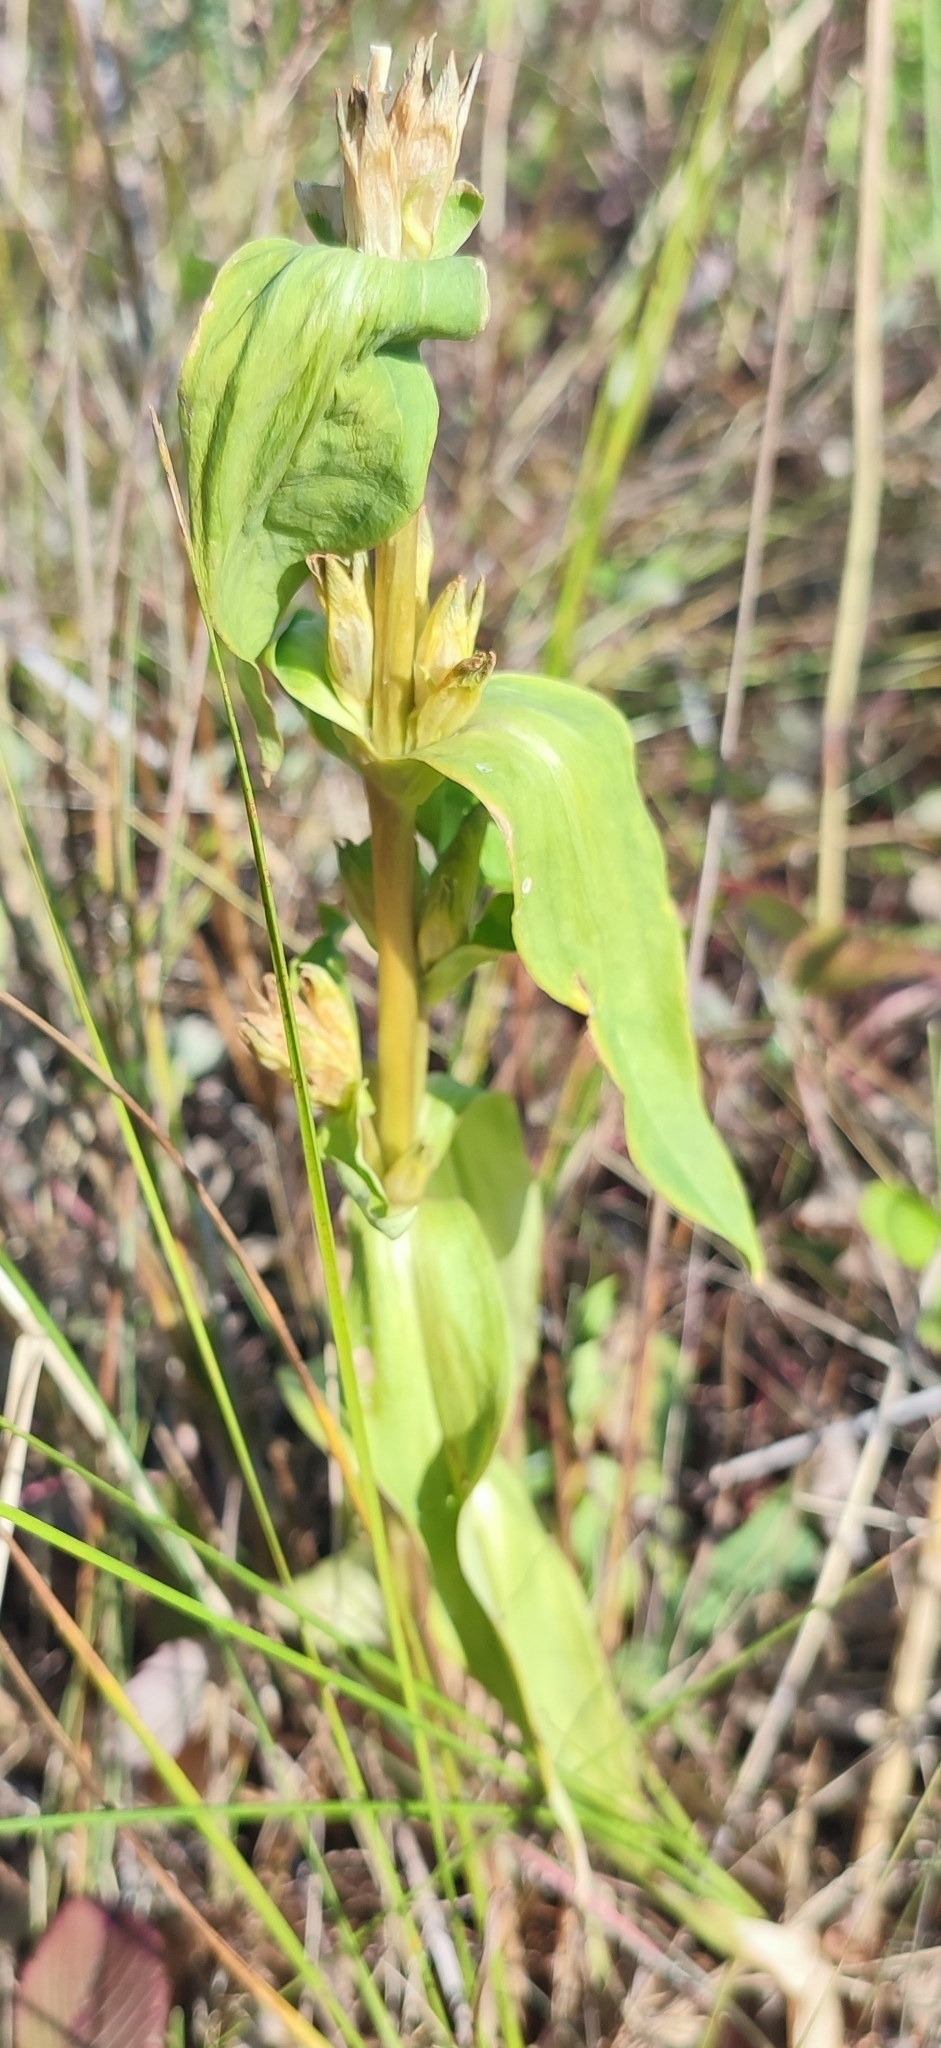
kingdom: Plantae
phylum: Tracheophyta
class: Magnoliopsida
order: Gentianales
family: Gentianaceae
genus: Gentiana
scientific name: Gentiana cruciata
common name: Cross gentian
